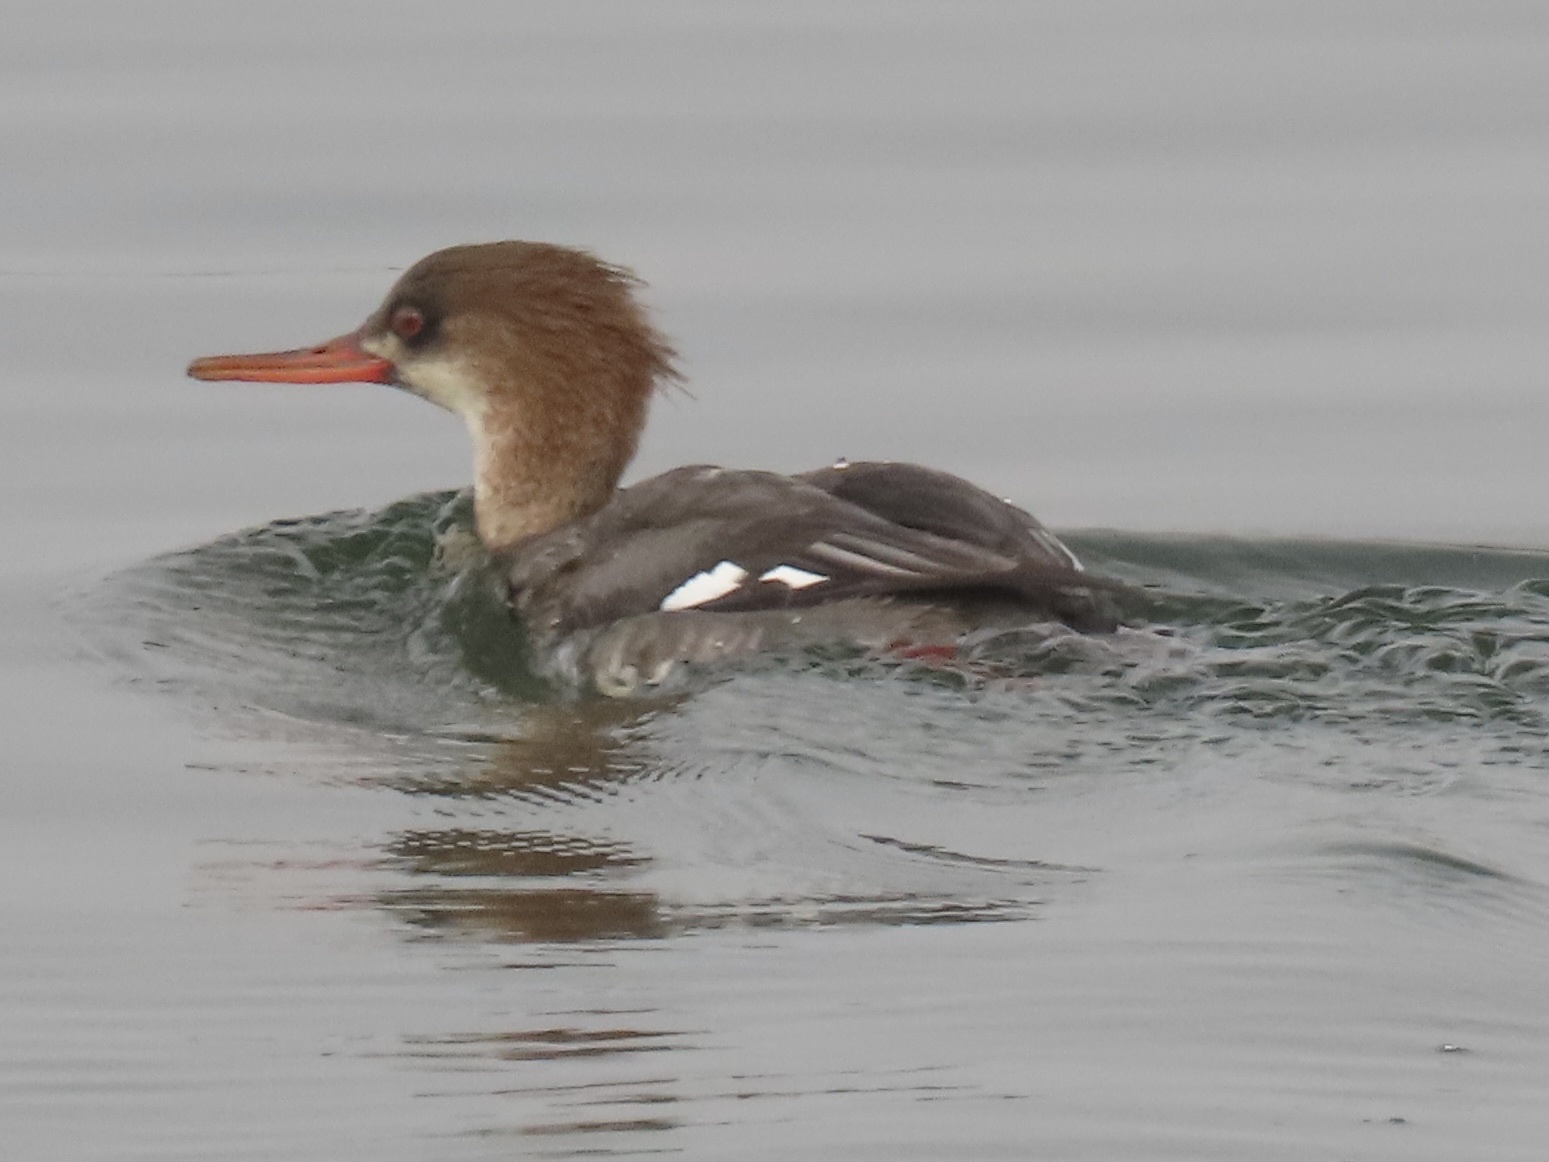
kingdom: Animalia
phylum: Chordata
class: Aves
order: Anseriformes
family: Anatidae
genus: Mergus
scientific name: Mergus serrator
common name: Red-breasted merganser
